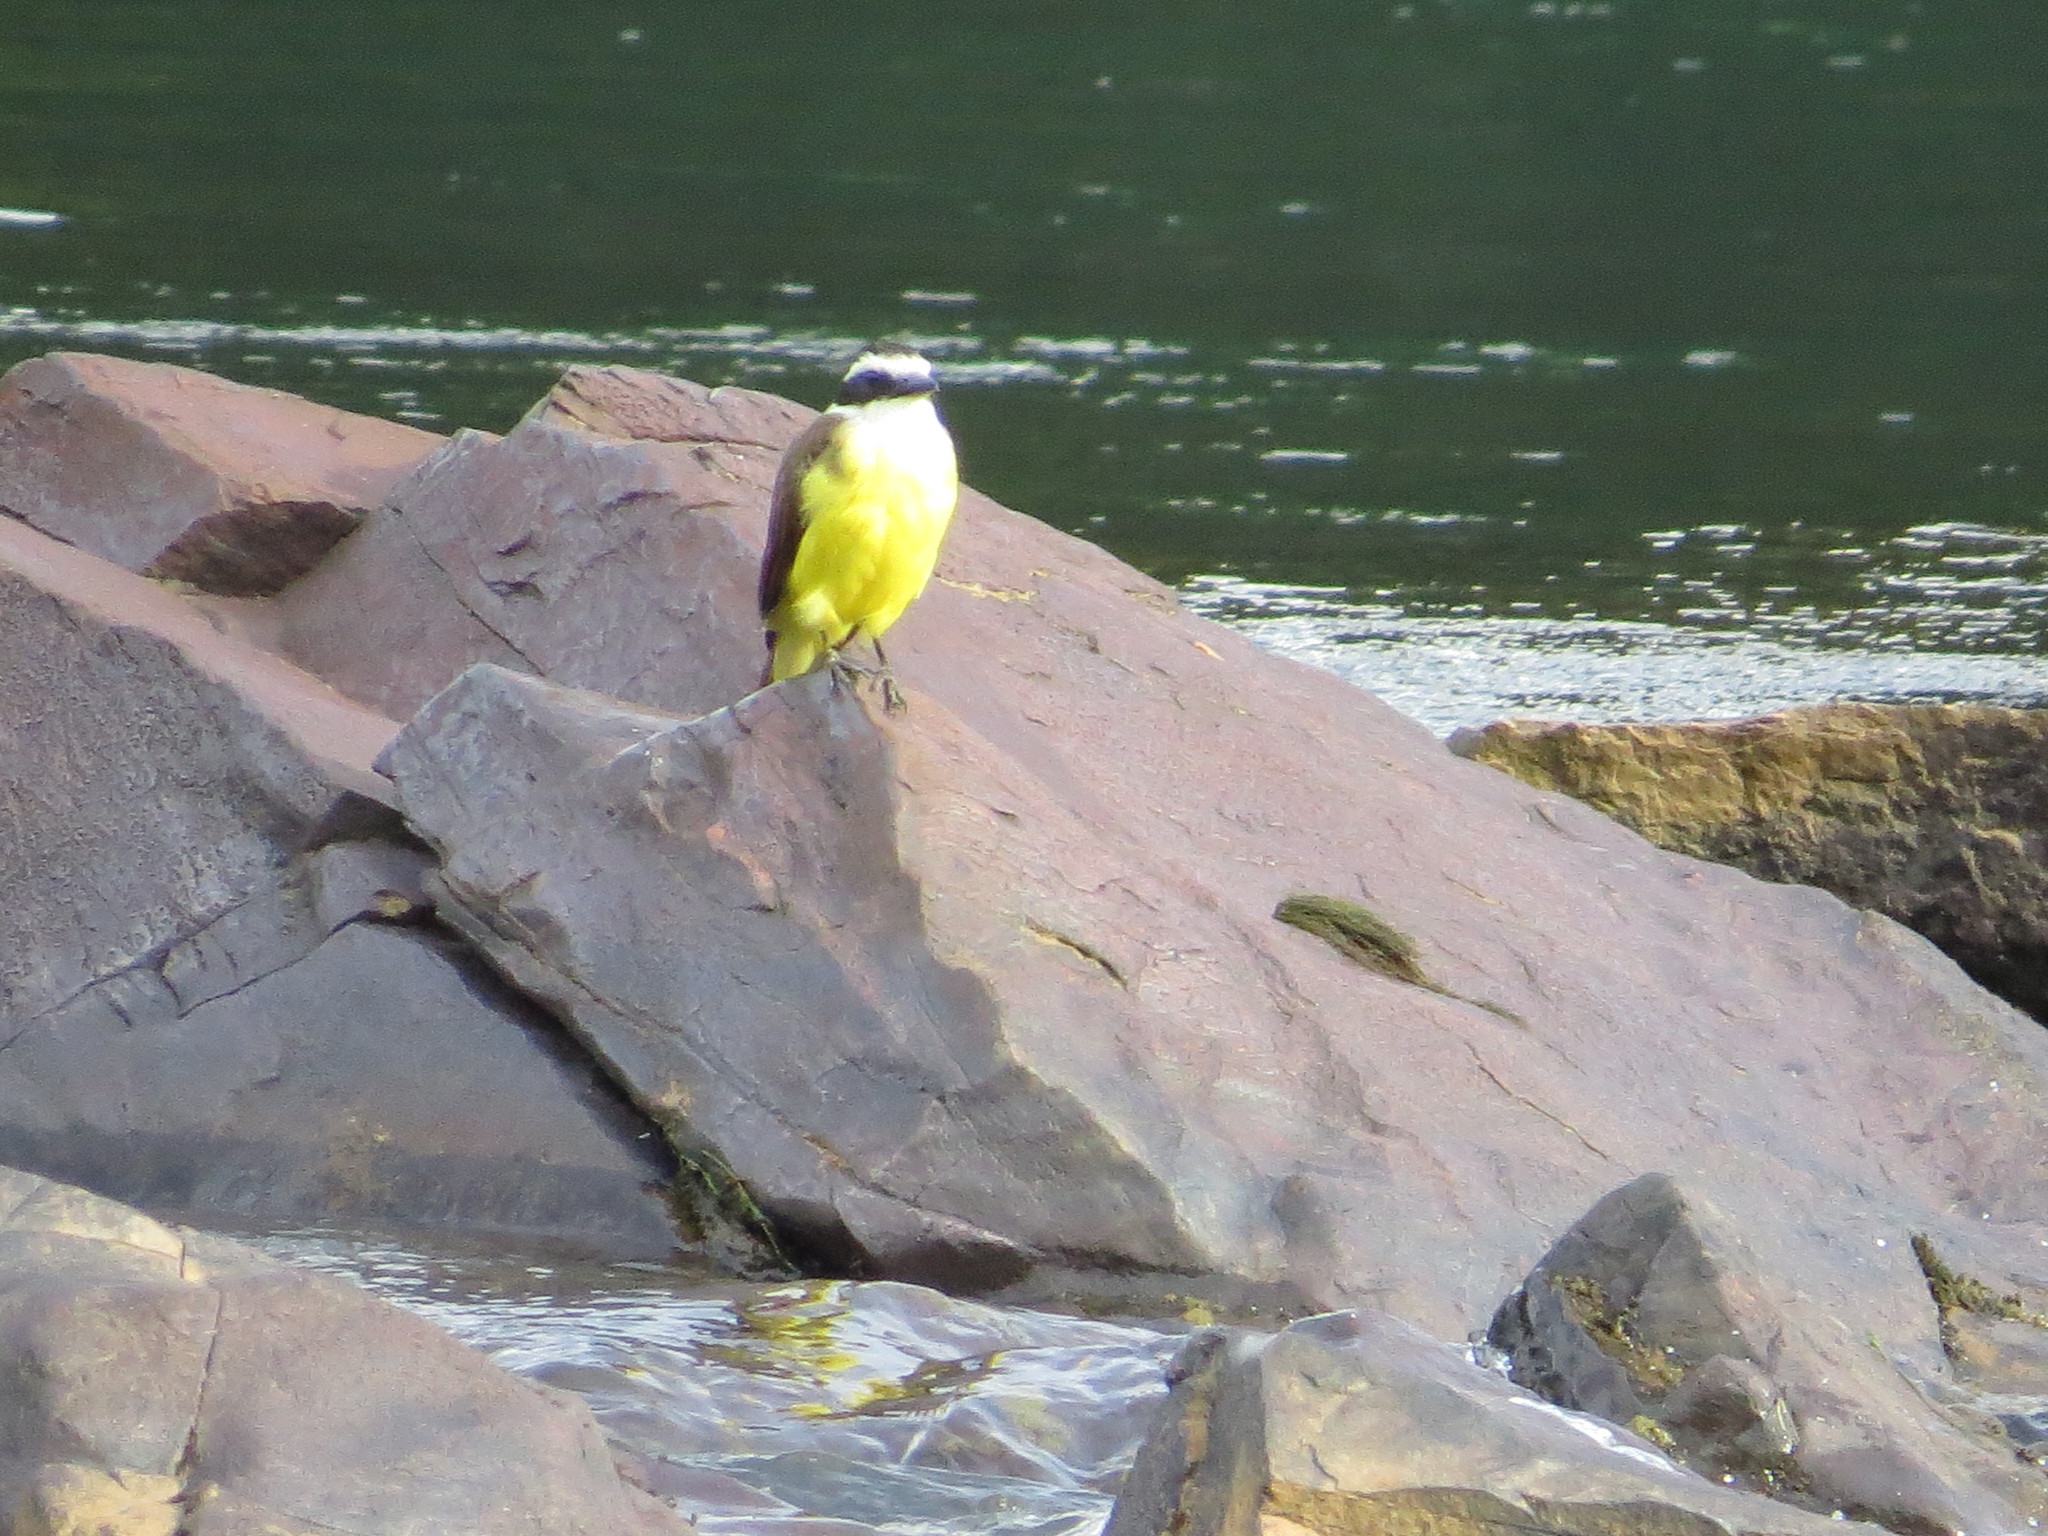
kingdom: Animalia
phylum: Chordata
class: Aves
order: Passeriformes
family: Tyrannidae
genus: Pitangus
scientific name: Pitangus sulphuratus
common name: Great kiskadee
